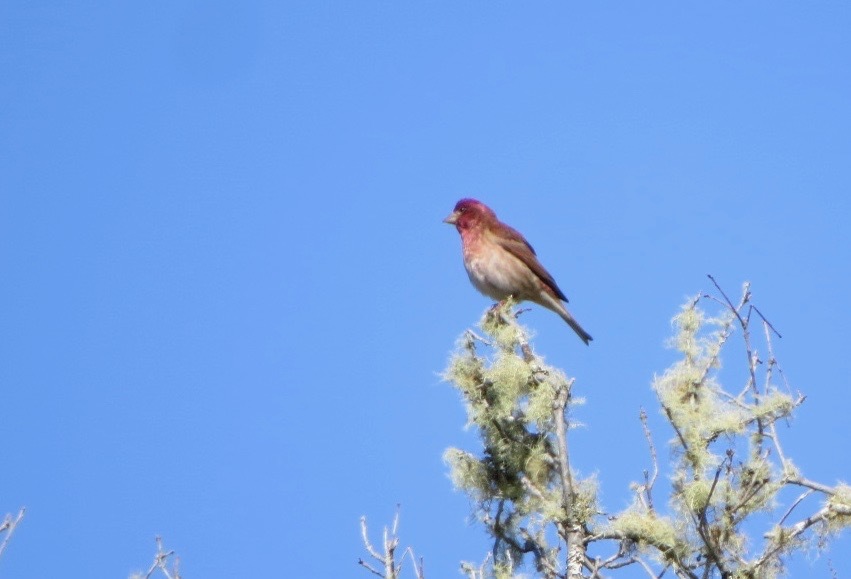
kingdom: Animalia
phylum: Chordata
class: Aves
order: Passeriformes
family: Fringillidae
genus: Haemorhous
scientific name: Haemorhous purpureus
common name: Purple finch
